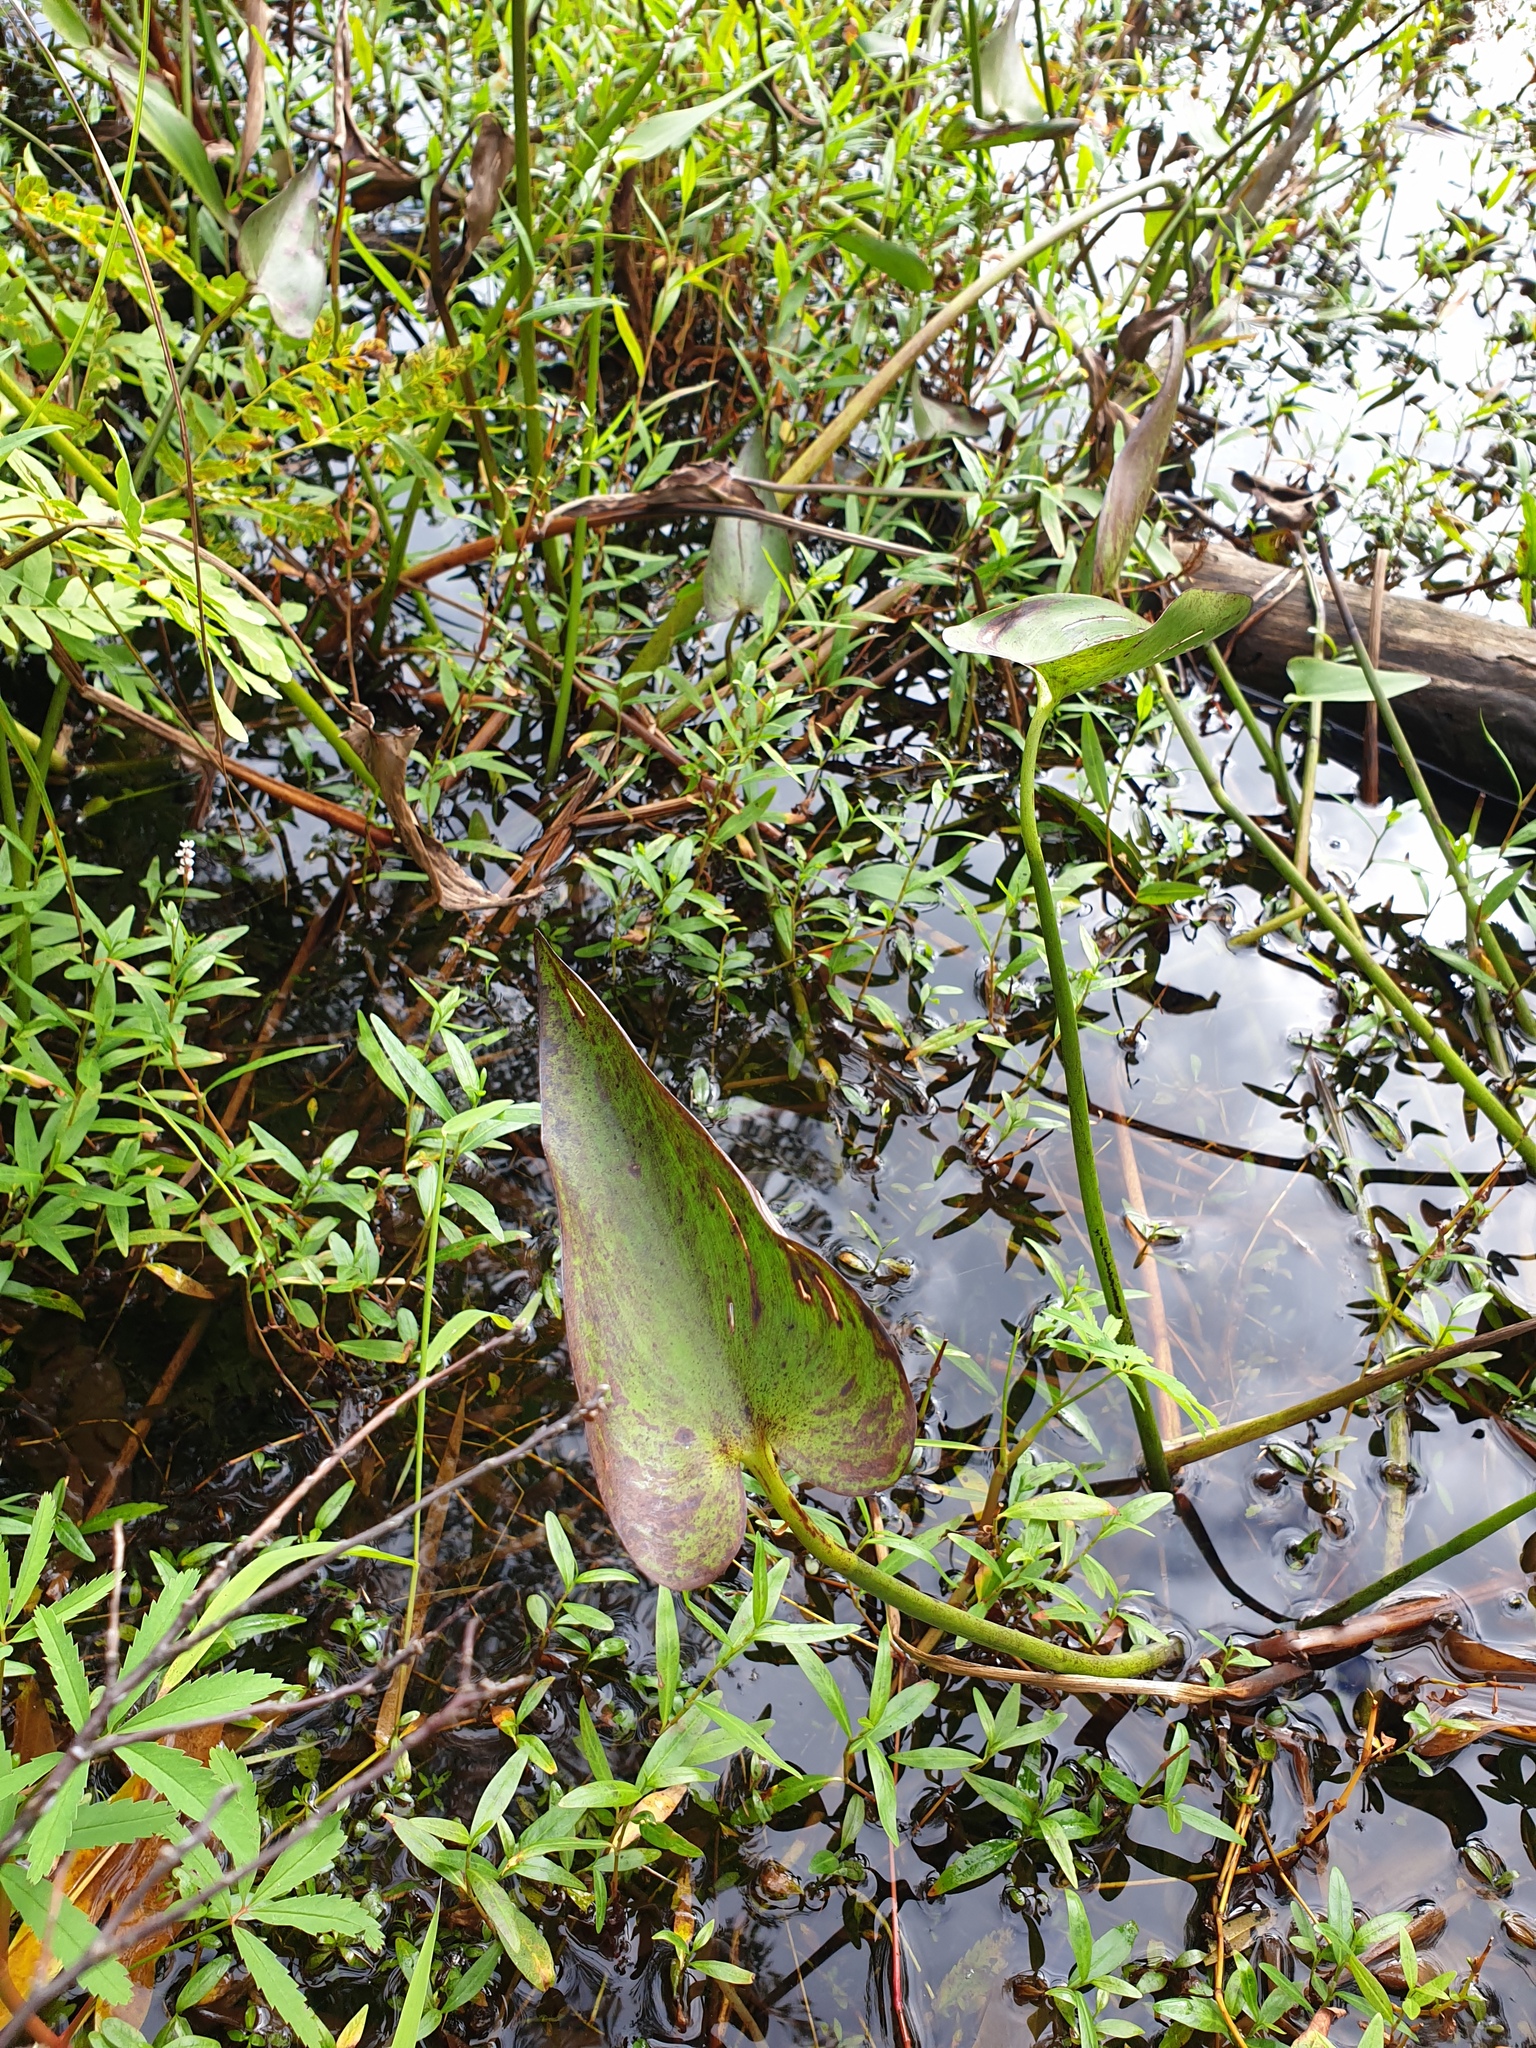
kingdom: Plantae
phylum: Tracheophyta
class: Liliopsida
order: Commelinales
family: Pontederiaceae
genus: Pontederia
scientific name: Pontederia cordata
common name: Pickerelweed
